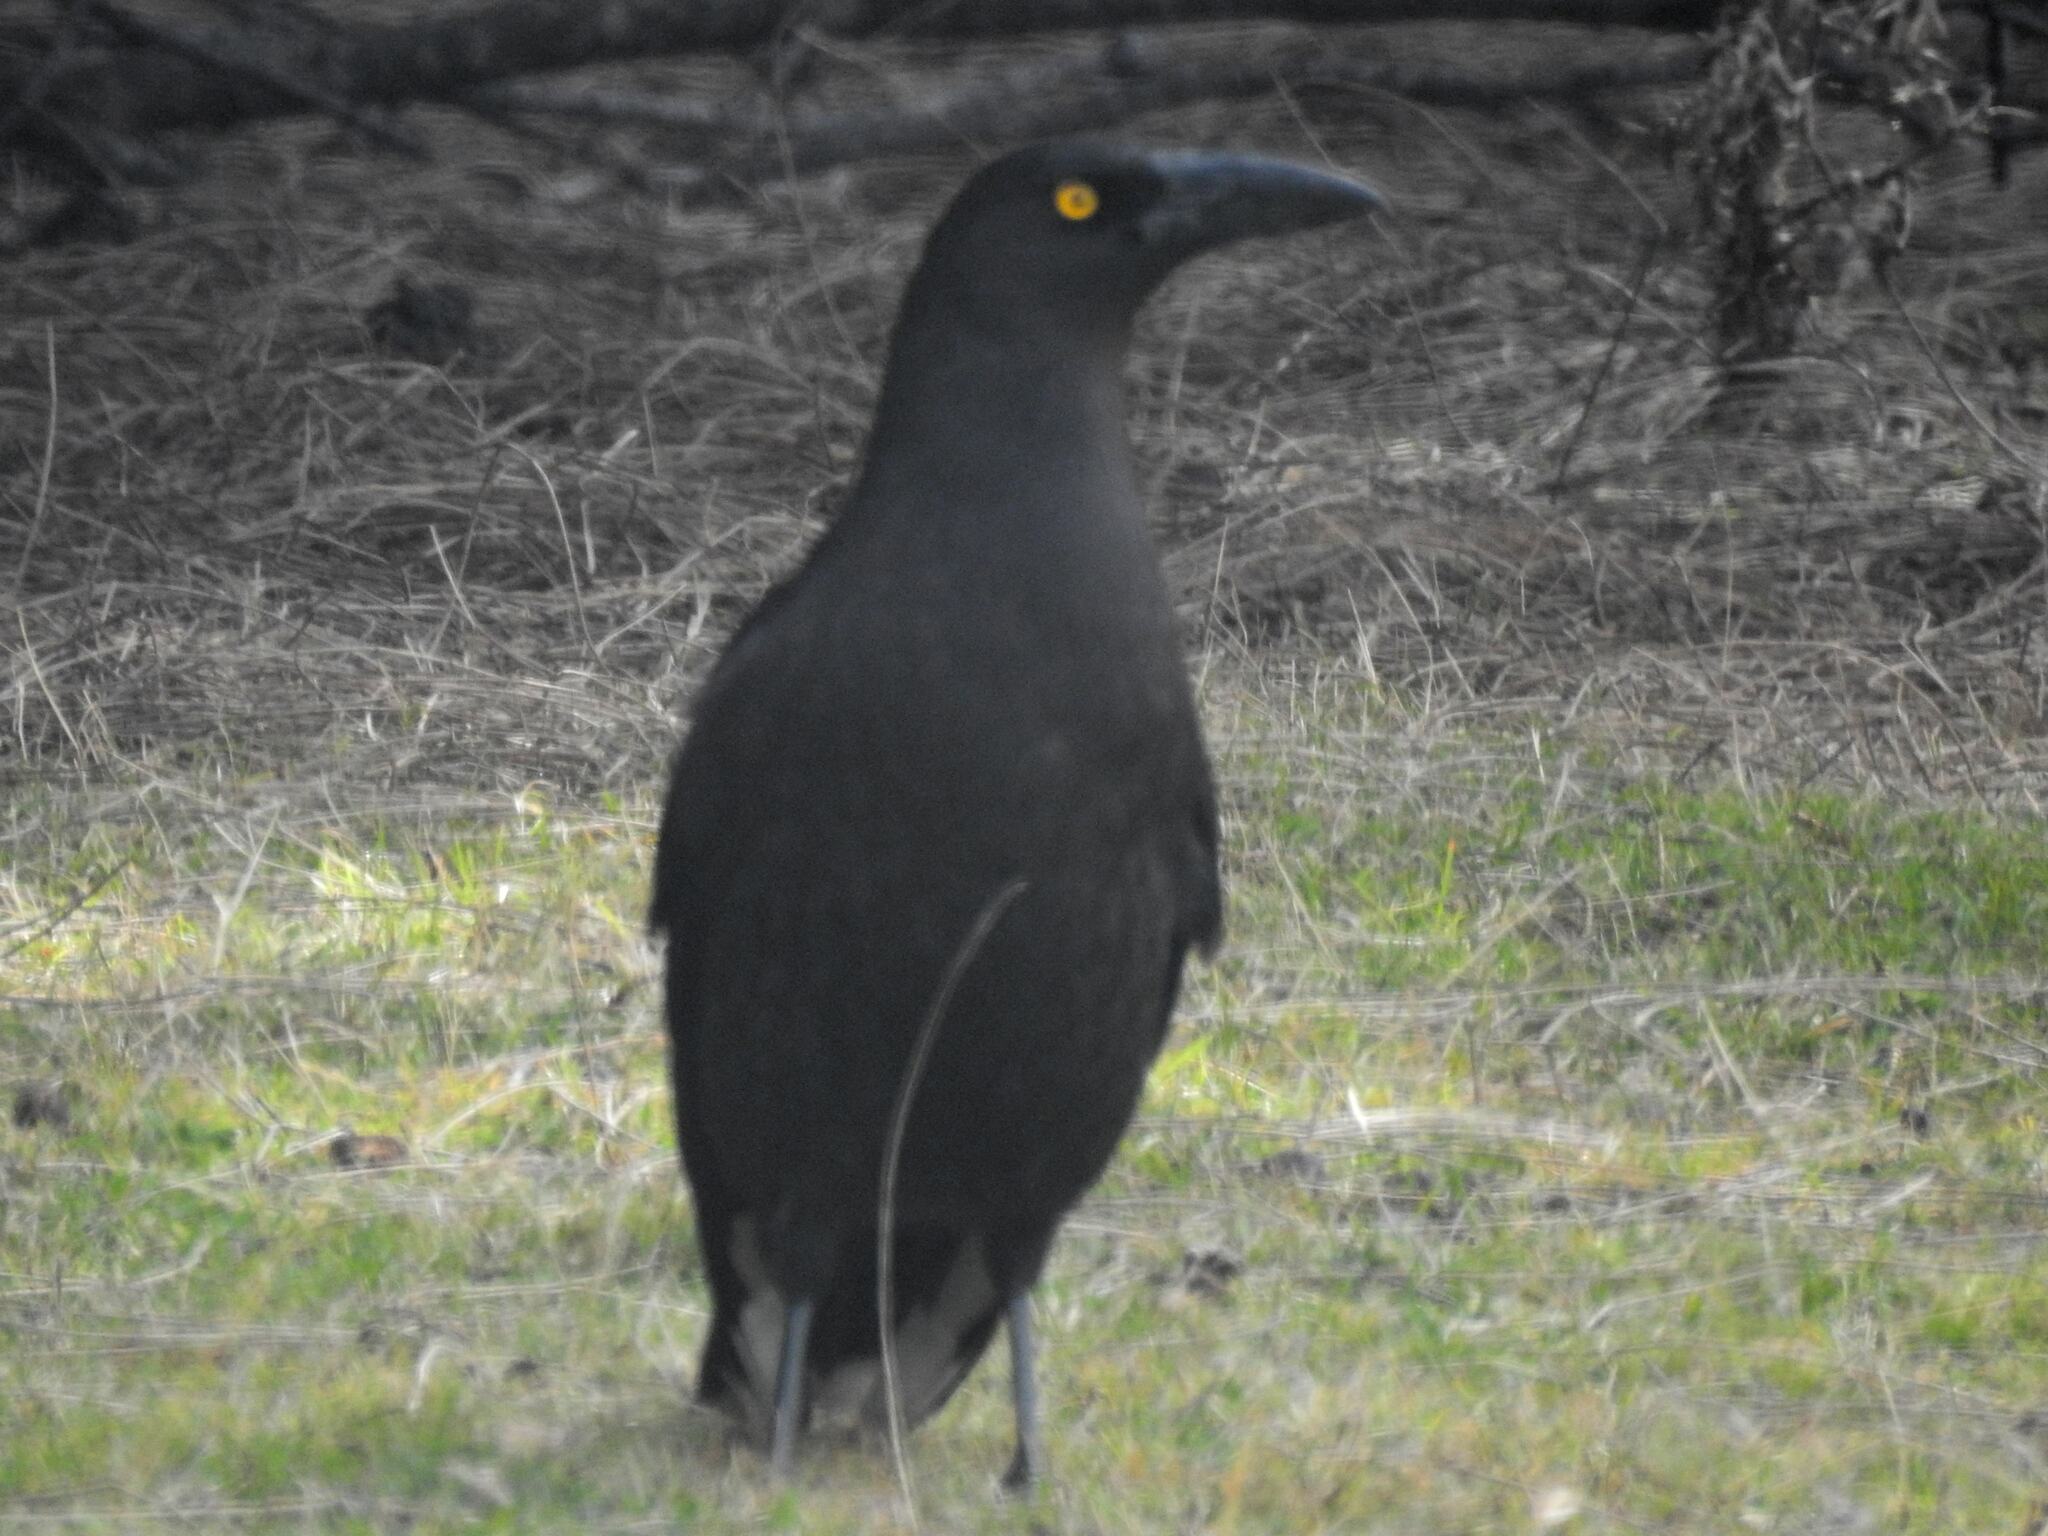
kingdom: Animalia
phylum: Chordata
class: Aves
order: Passeriformes
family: Cracticidae
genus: Strepera
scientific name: Strepera fuliginosa
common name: Black currawong
